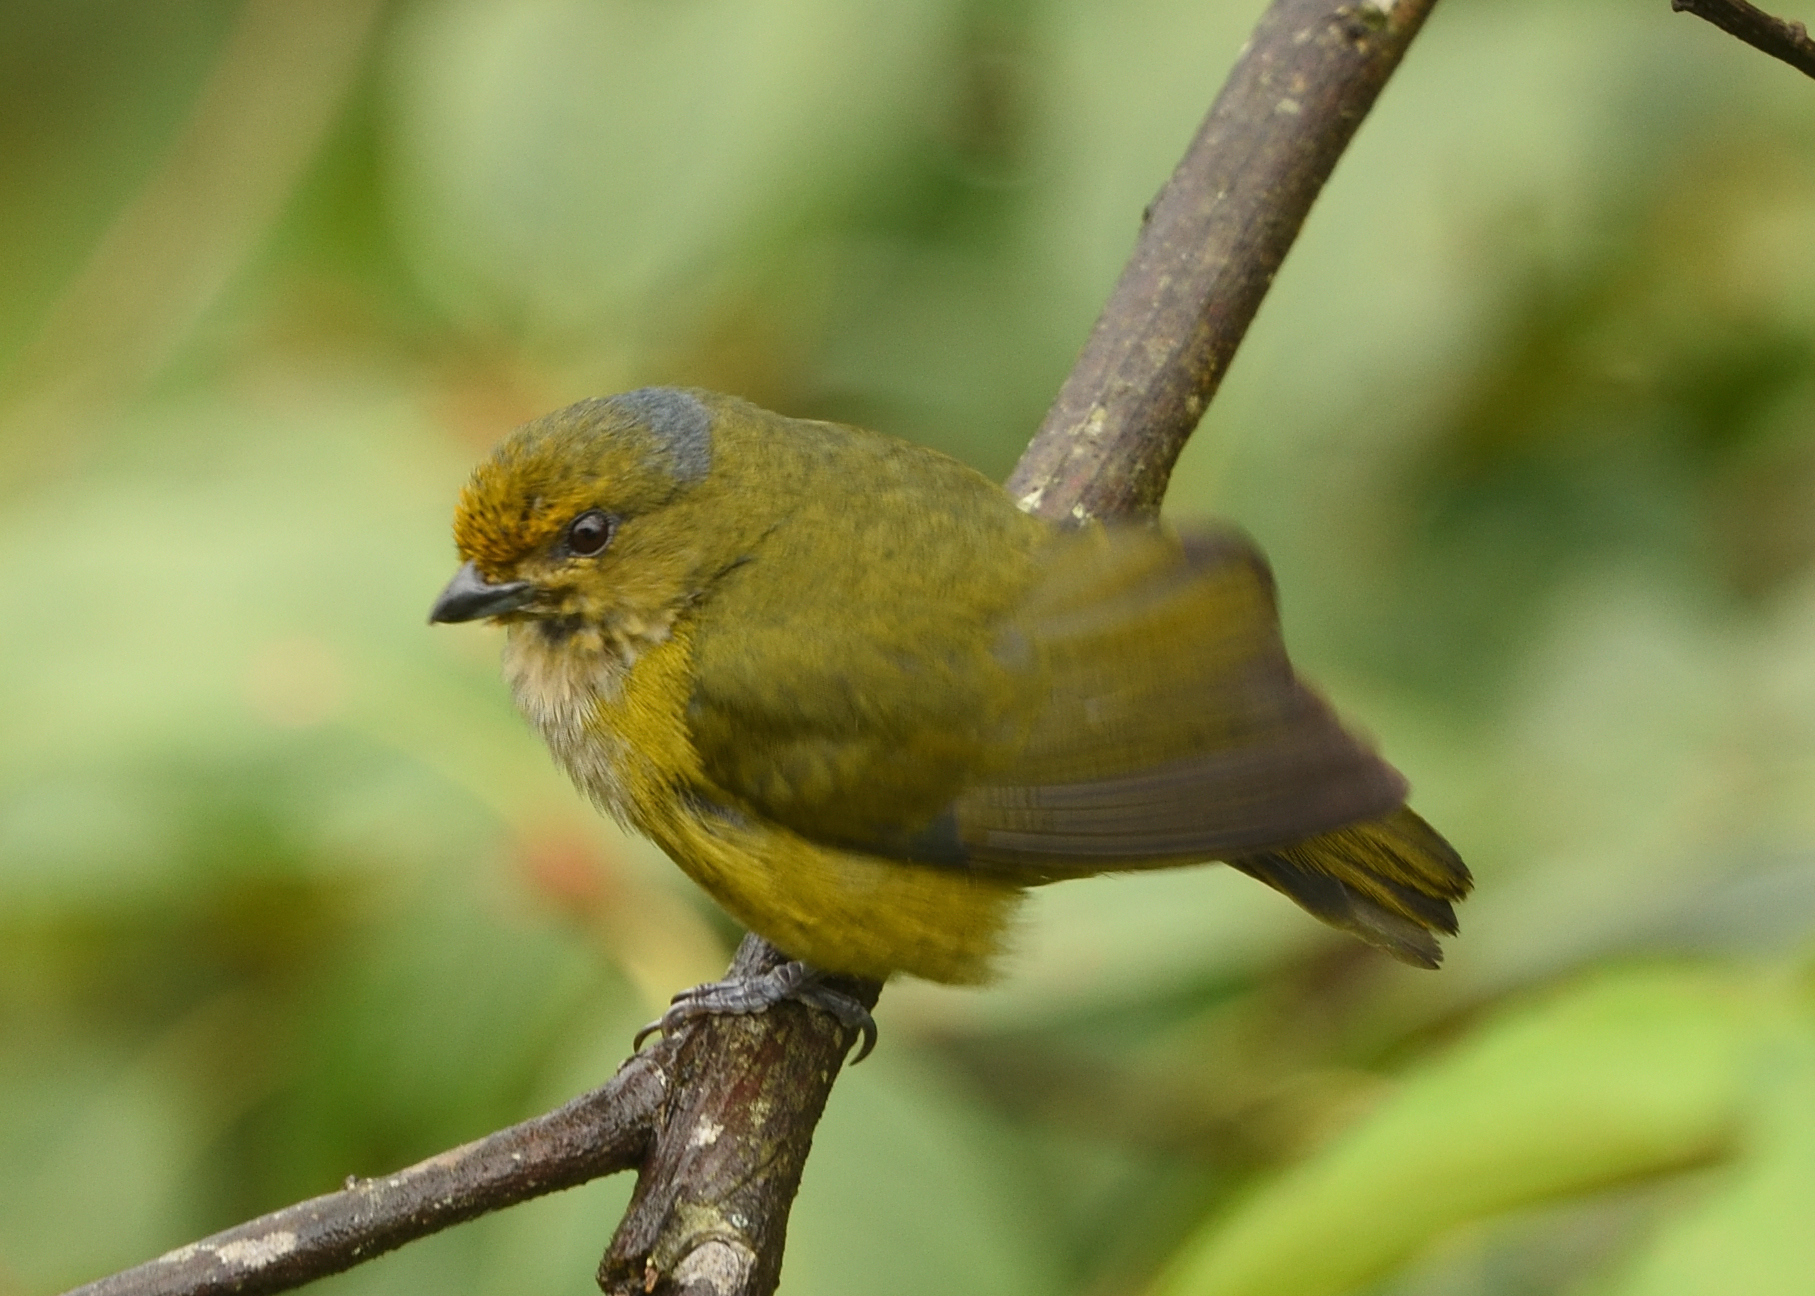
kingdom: Animalia
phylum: Chordata
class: Aves
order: Passeriformes
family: Fringillidae
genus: Euphonia
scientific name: Euphonia xanthogaster
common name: Orange-bellied euphonia
